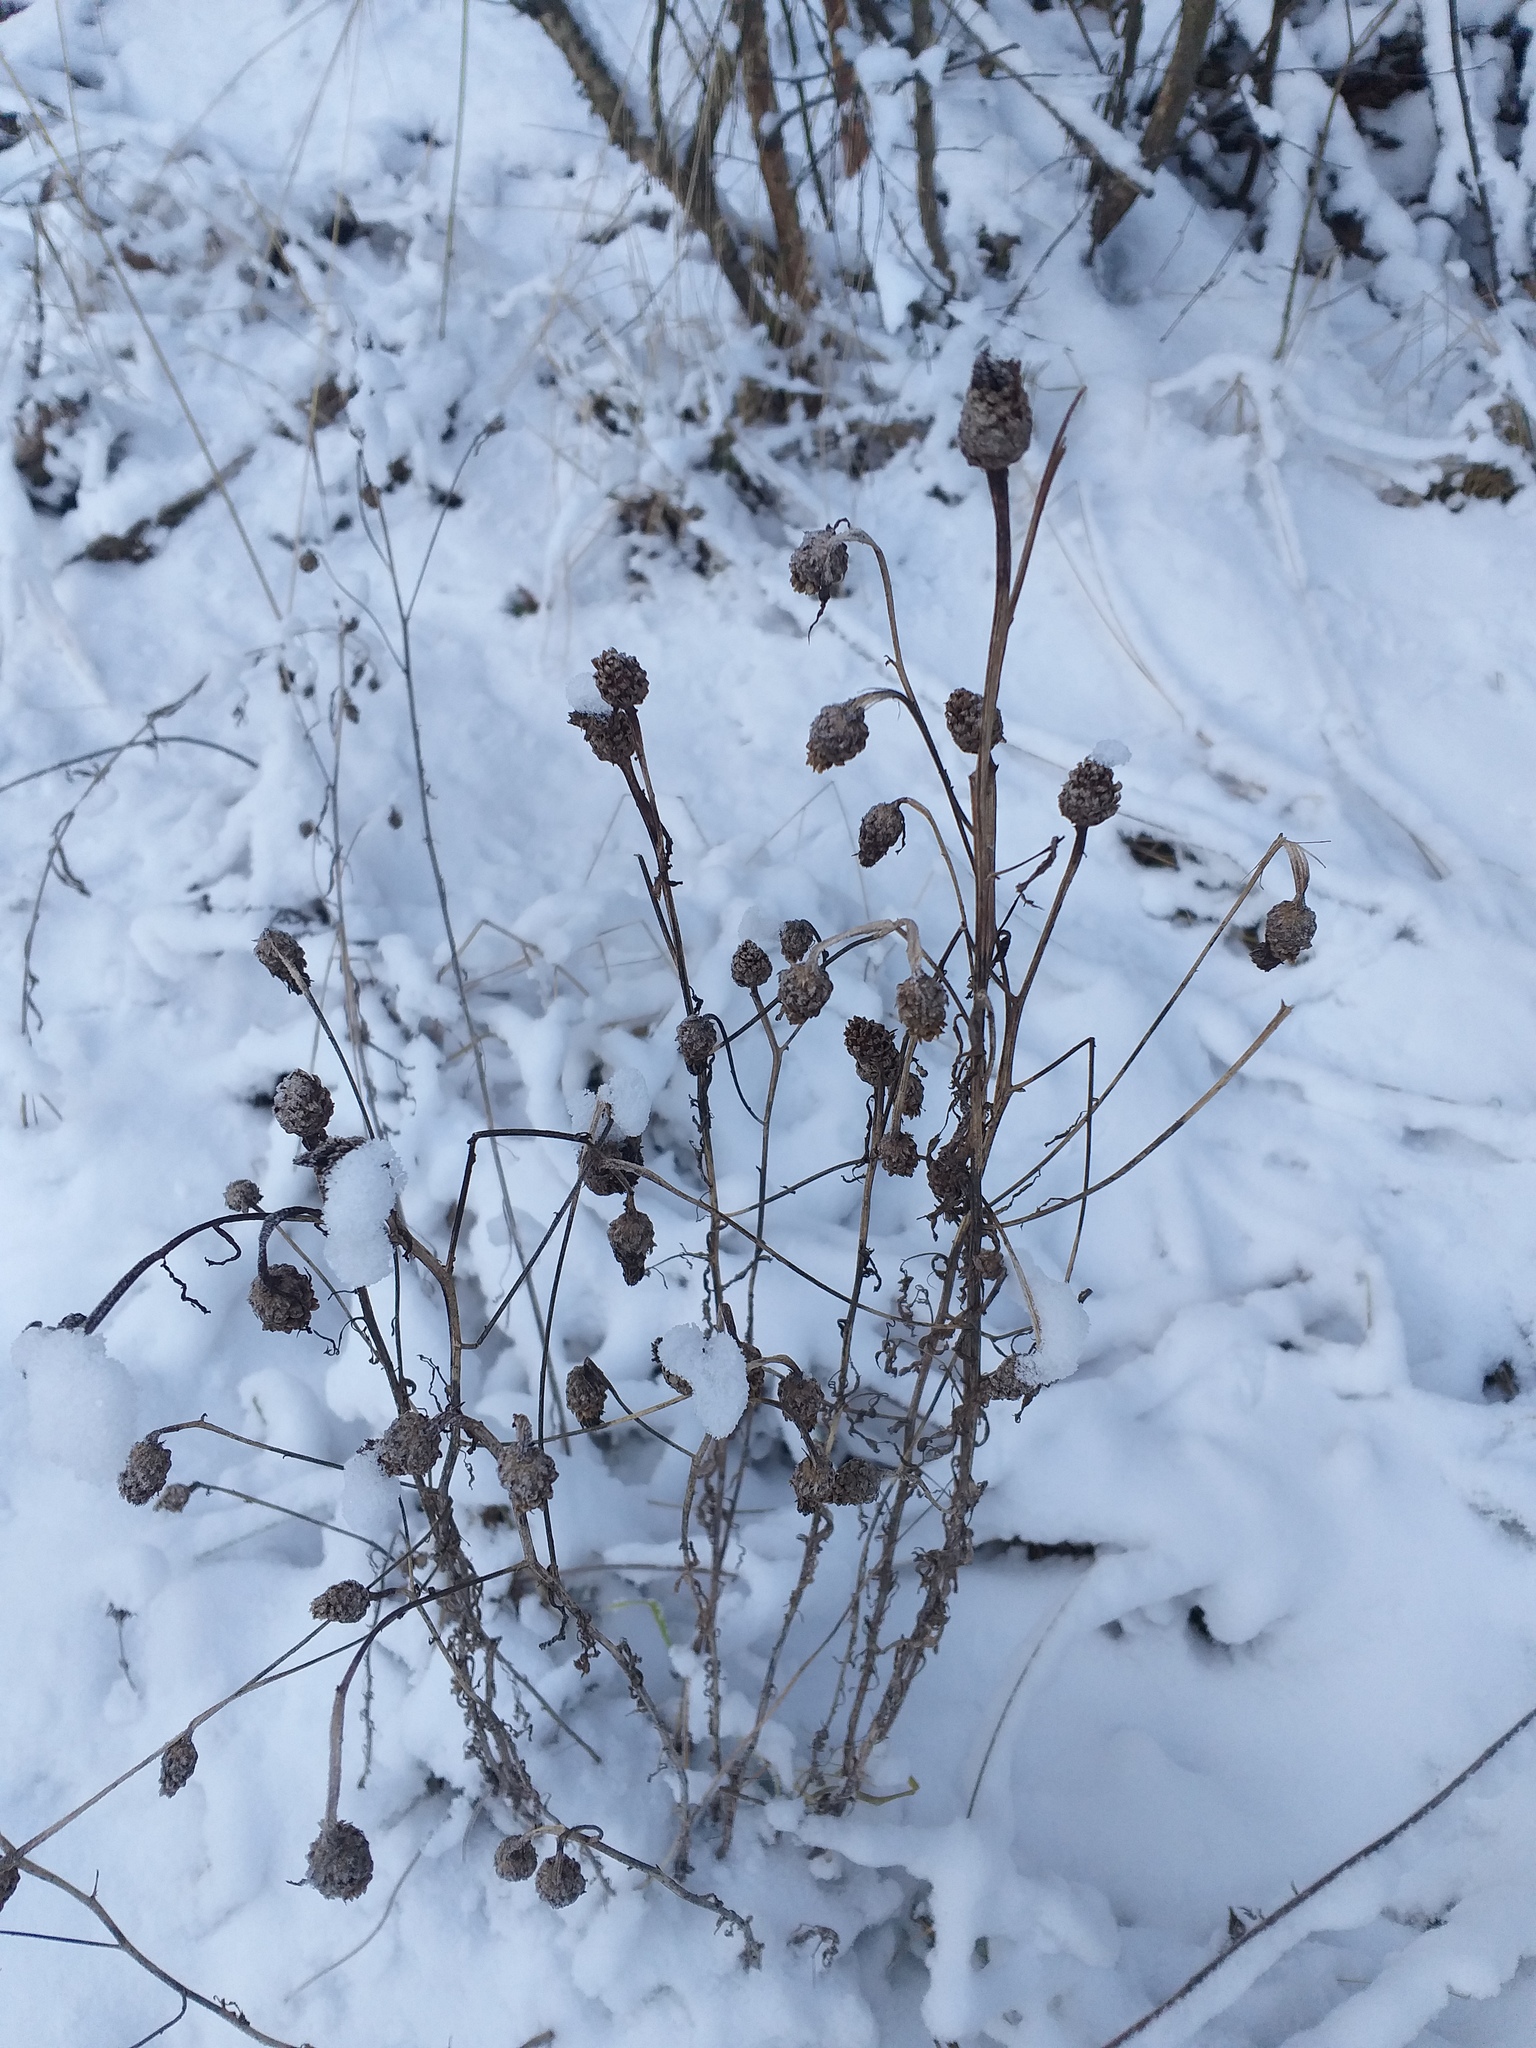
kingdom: Plantae
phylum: Tracheophyta
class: Magnoliopsida
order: Asterales
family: Asteraceae
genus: Centaurea
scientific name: Centaurea jacea
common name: Brown knapweed
